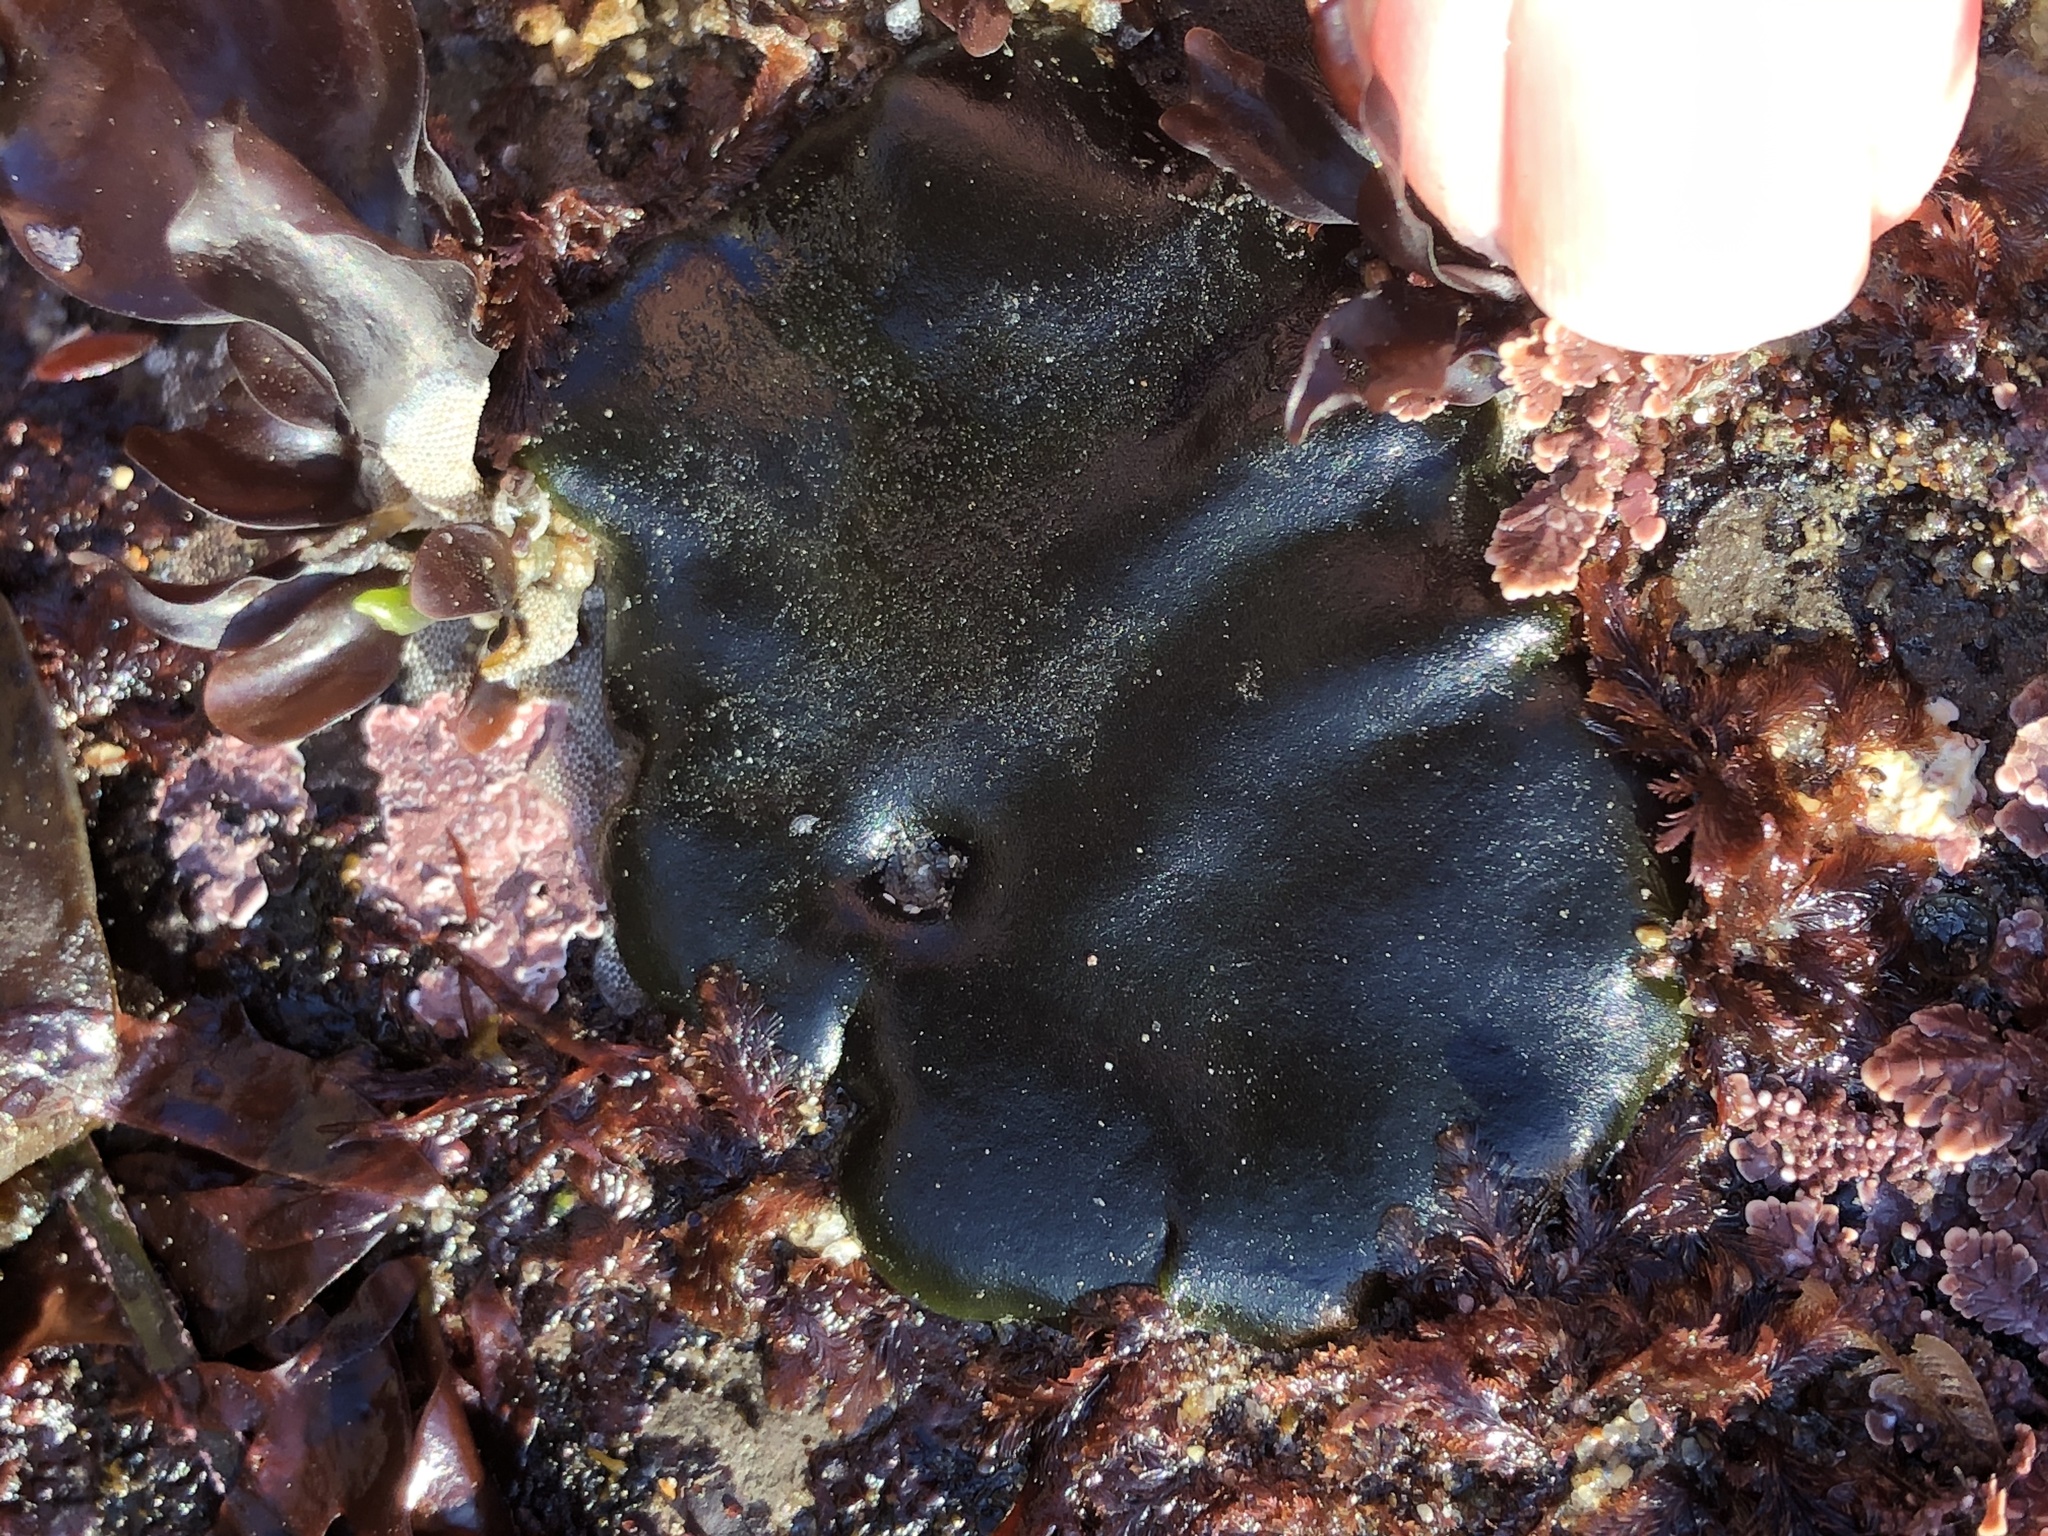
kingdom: Plantae
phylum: Chlorophyta
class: Ulvophyceae
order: Bryopsidales
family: Codiaceae
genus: Codium
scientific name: Codium setchellii
